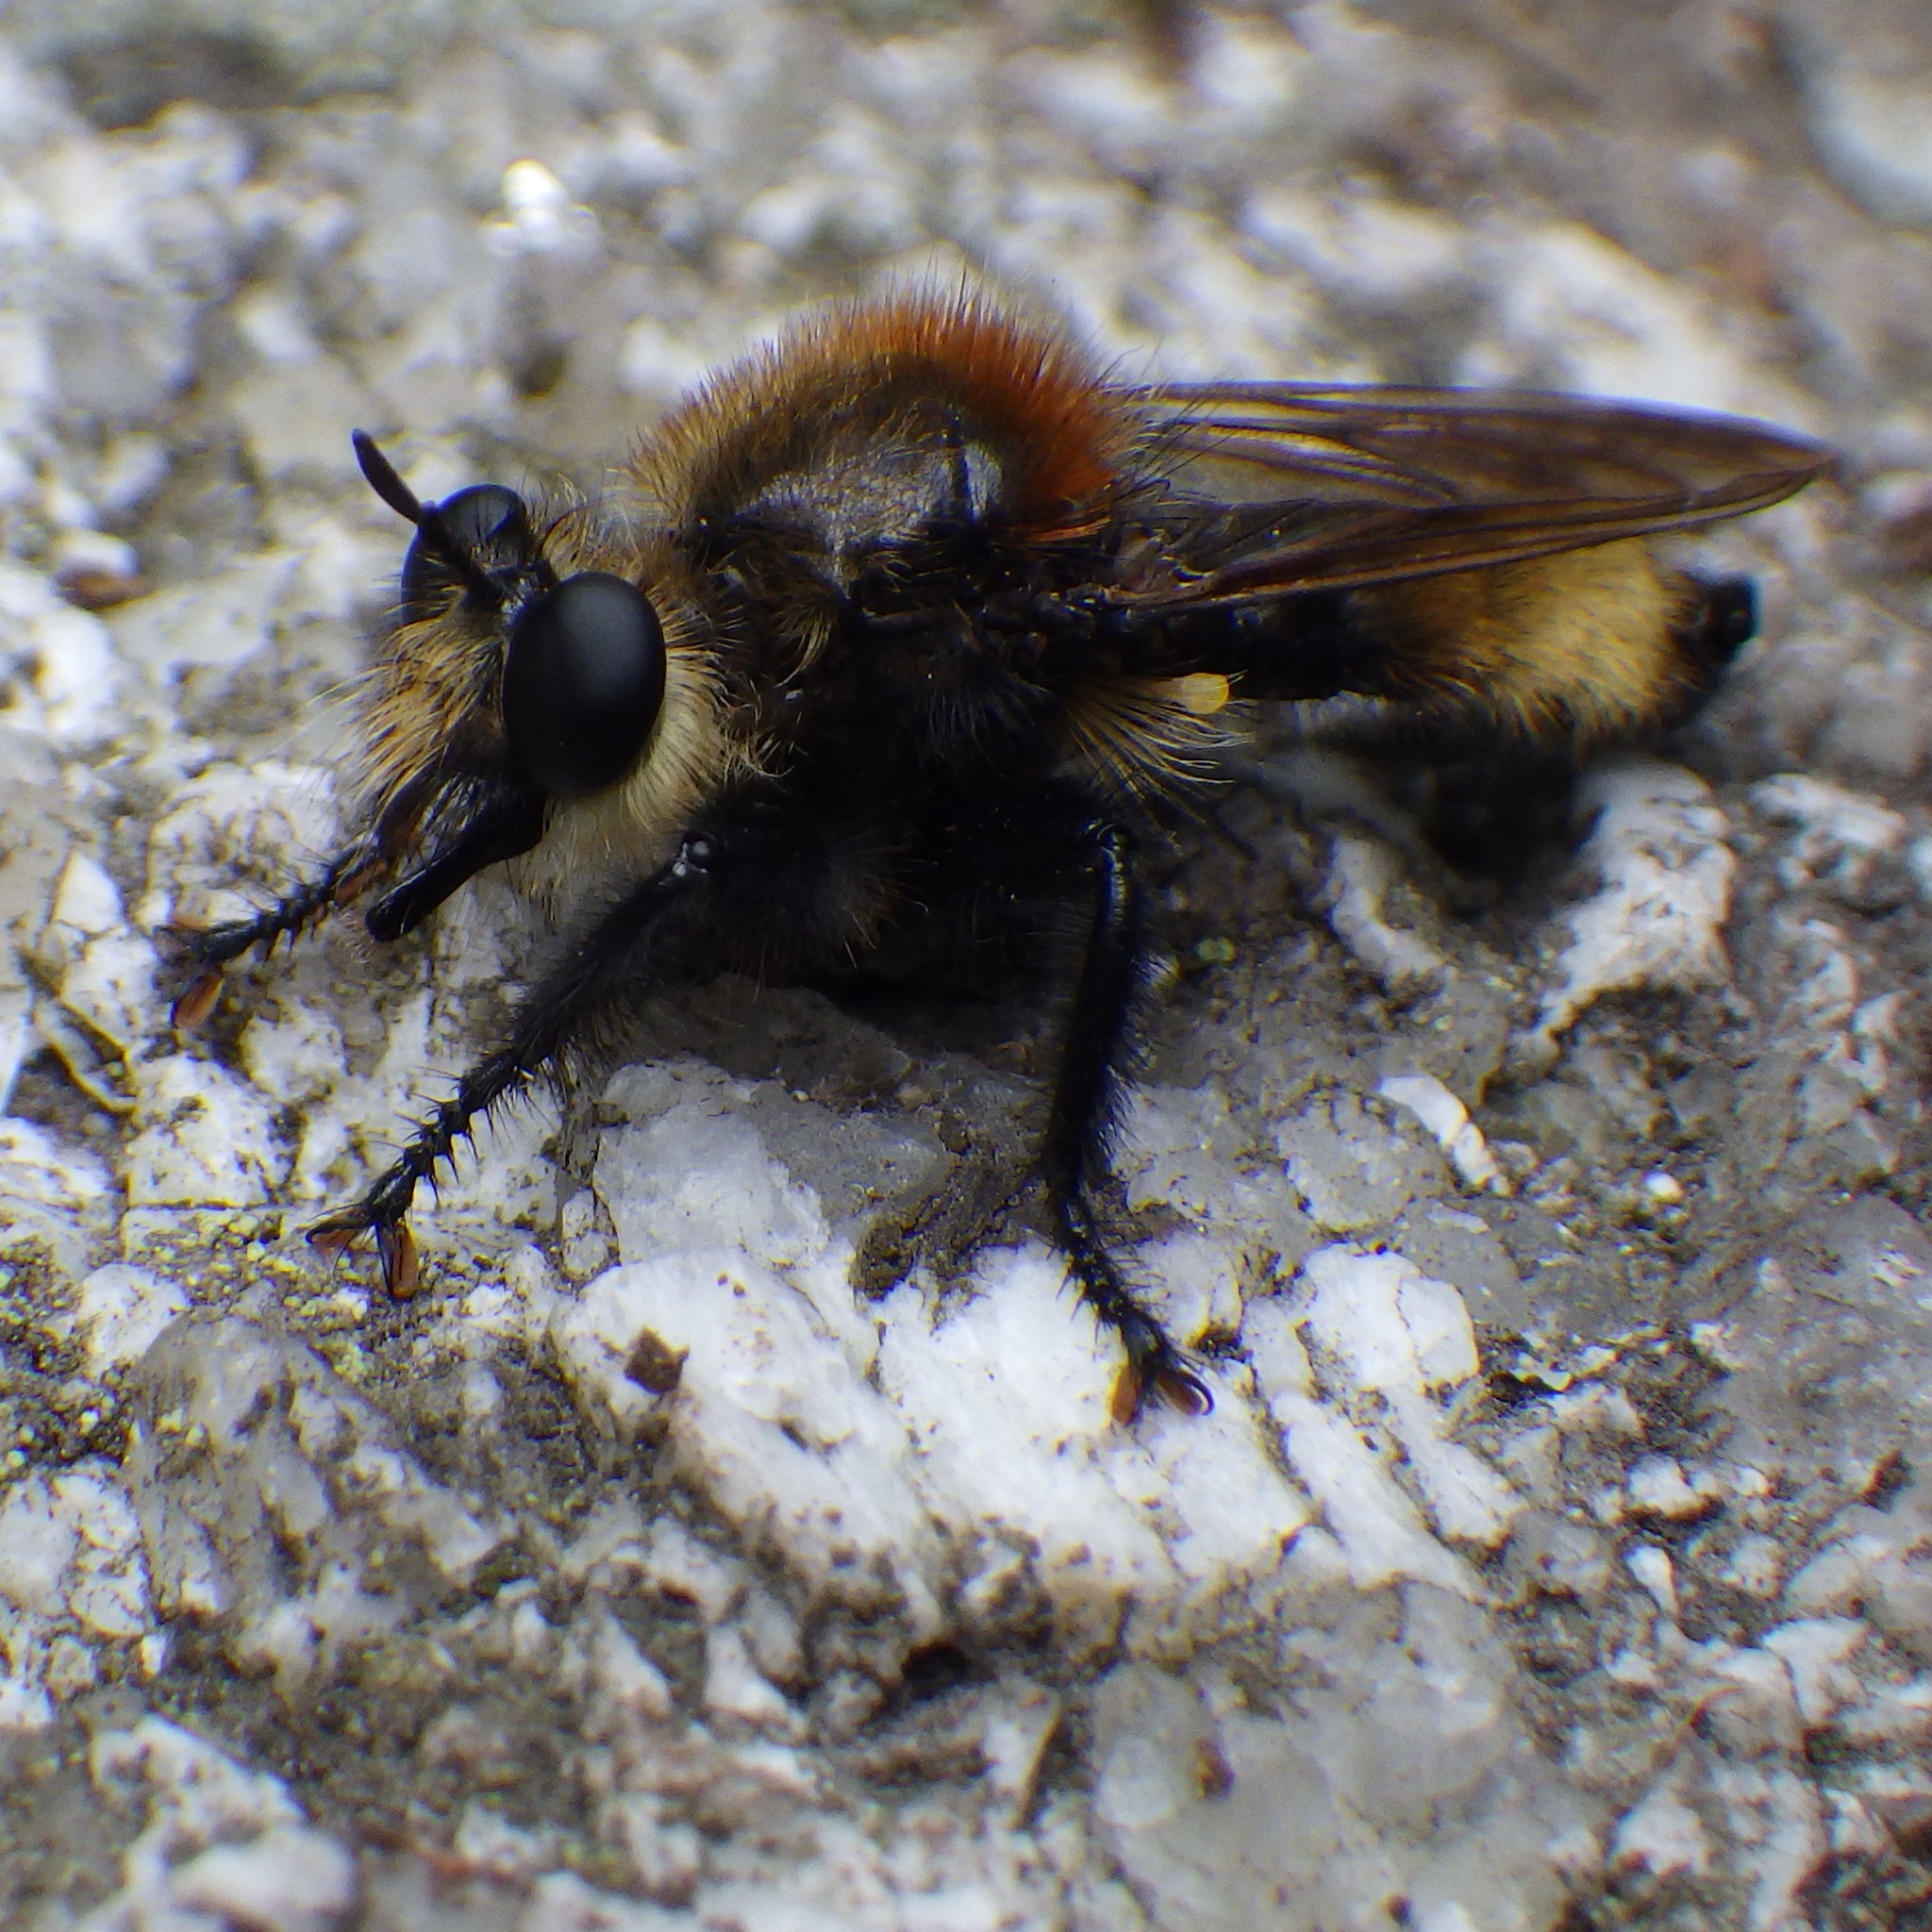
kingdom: Animalia
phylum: Arthropoda
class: Insecta
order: Diptera
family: Asilidae
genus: Laphria
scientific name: Laphria insignis
